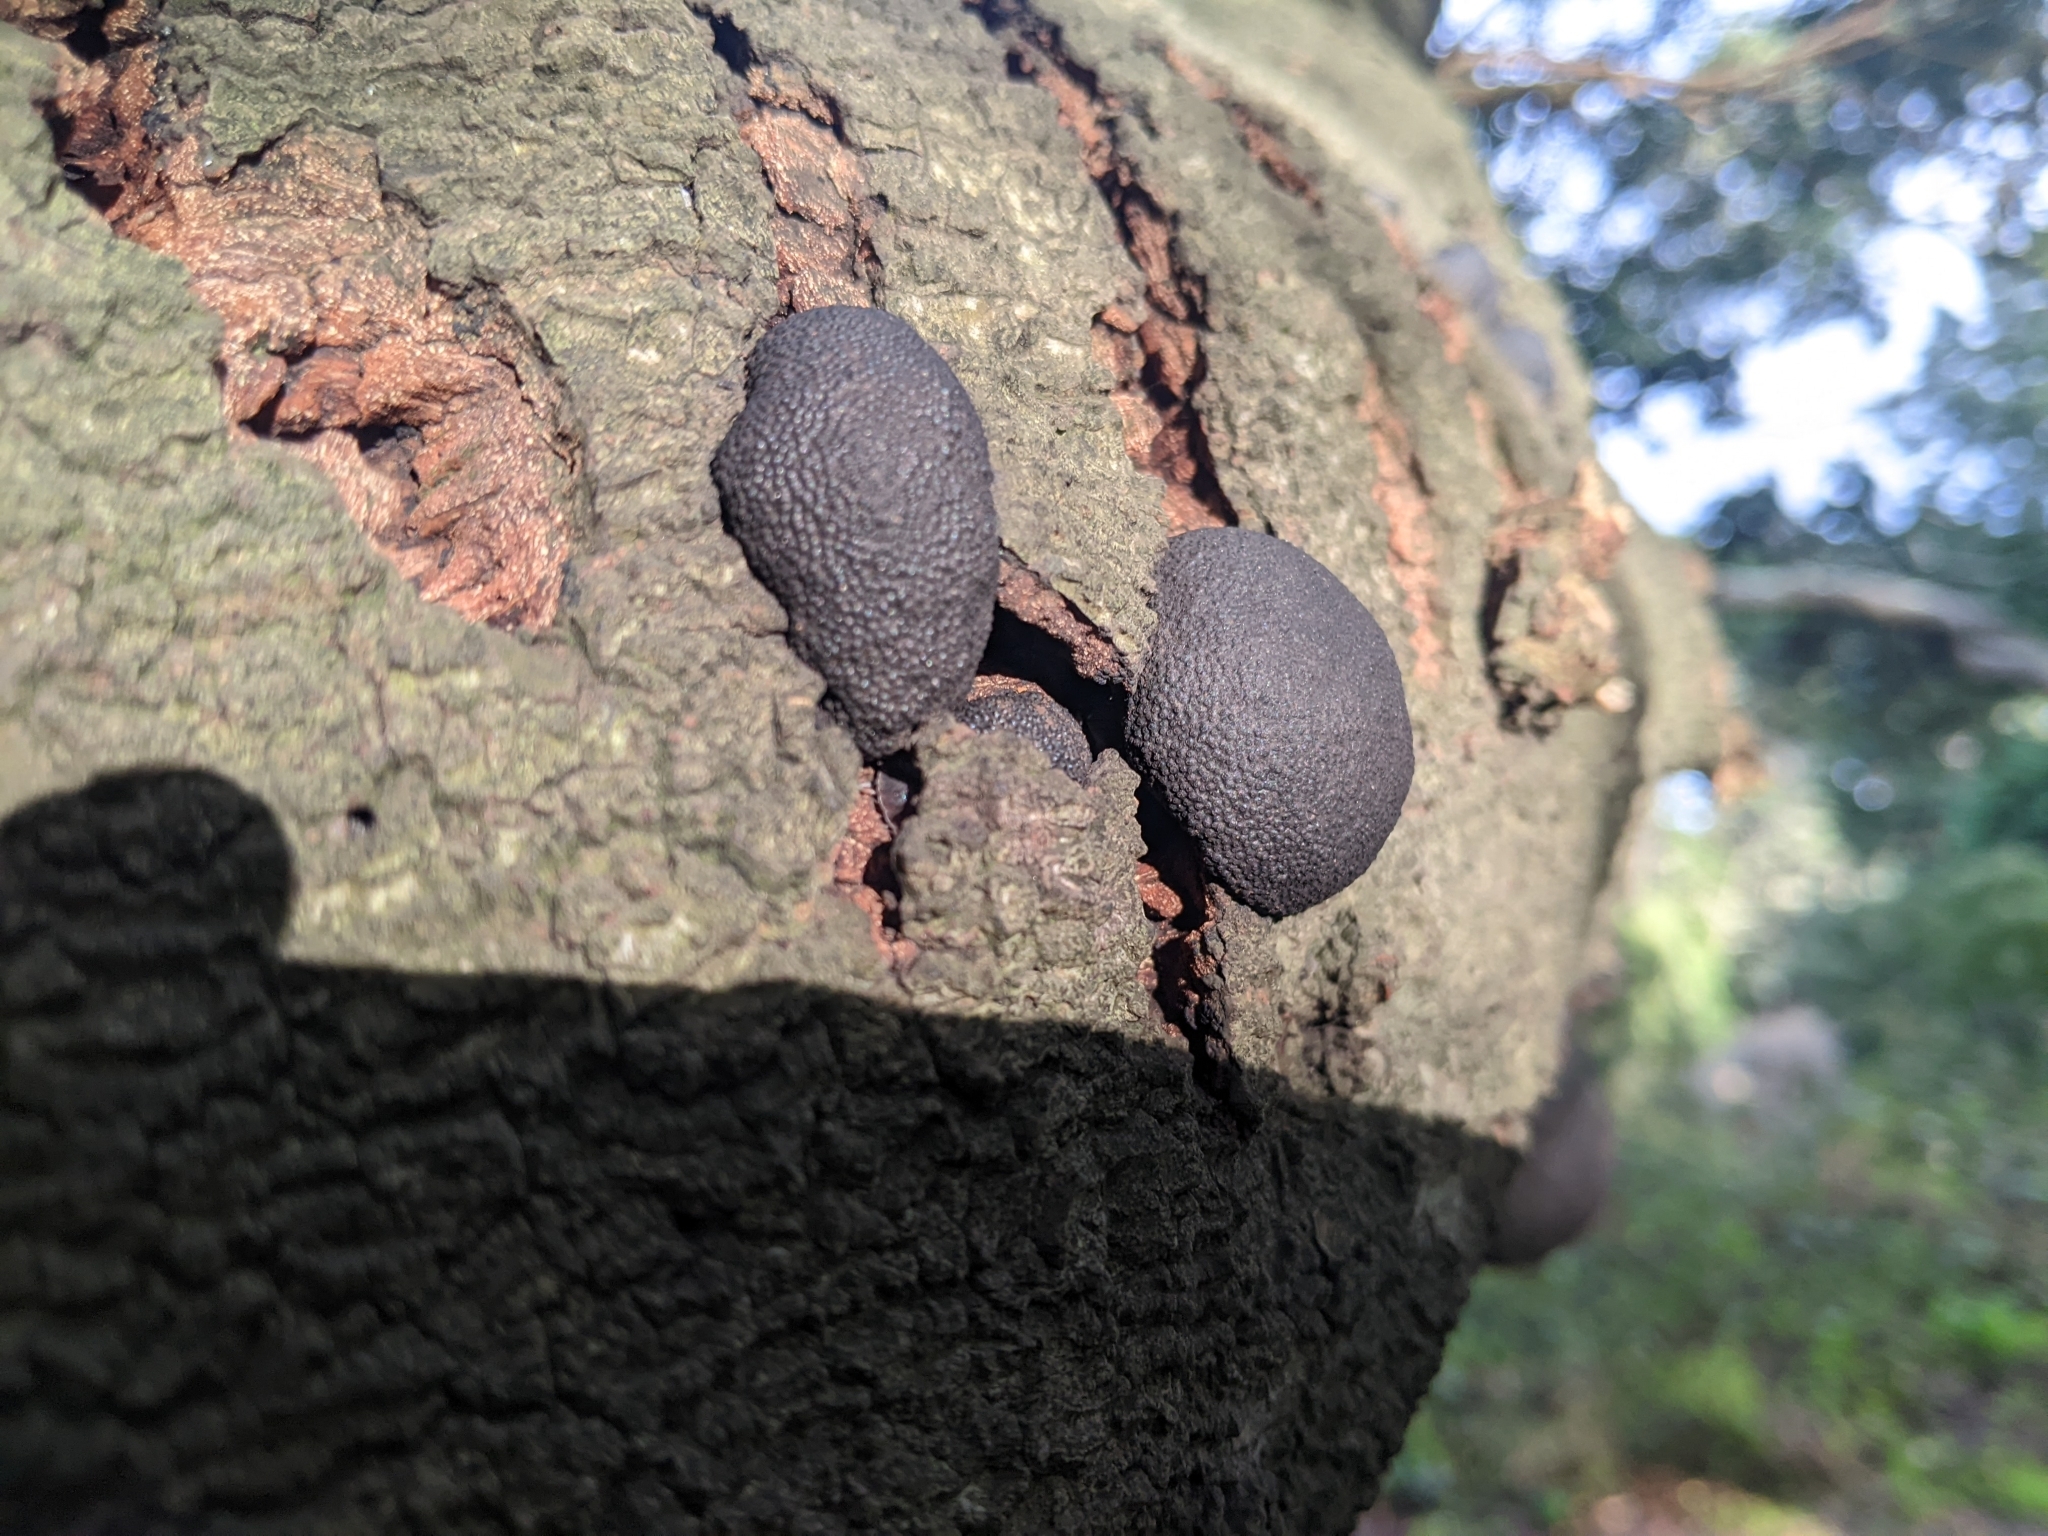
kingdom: Fungi
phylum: Ascomycota
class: Sordariomycetes
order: Xylariales
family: Hypoxylaceae
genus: Annulohypoxylon
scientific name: Annulohypoxylon thouarsianum
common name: Cramp balls
